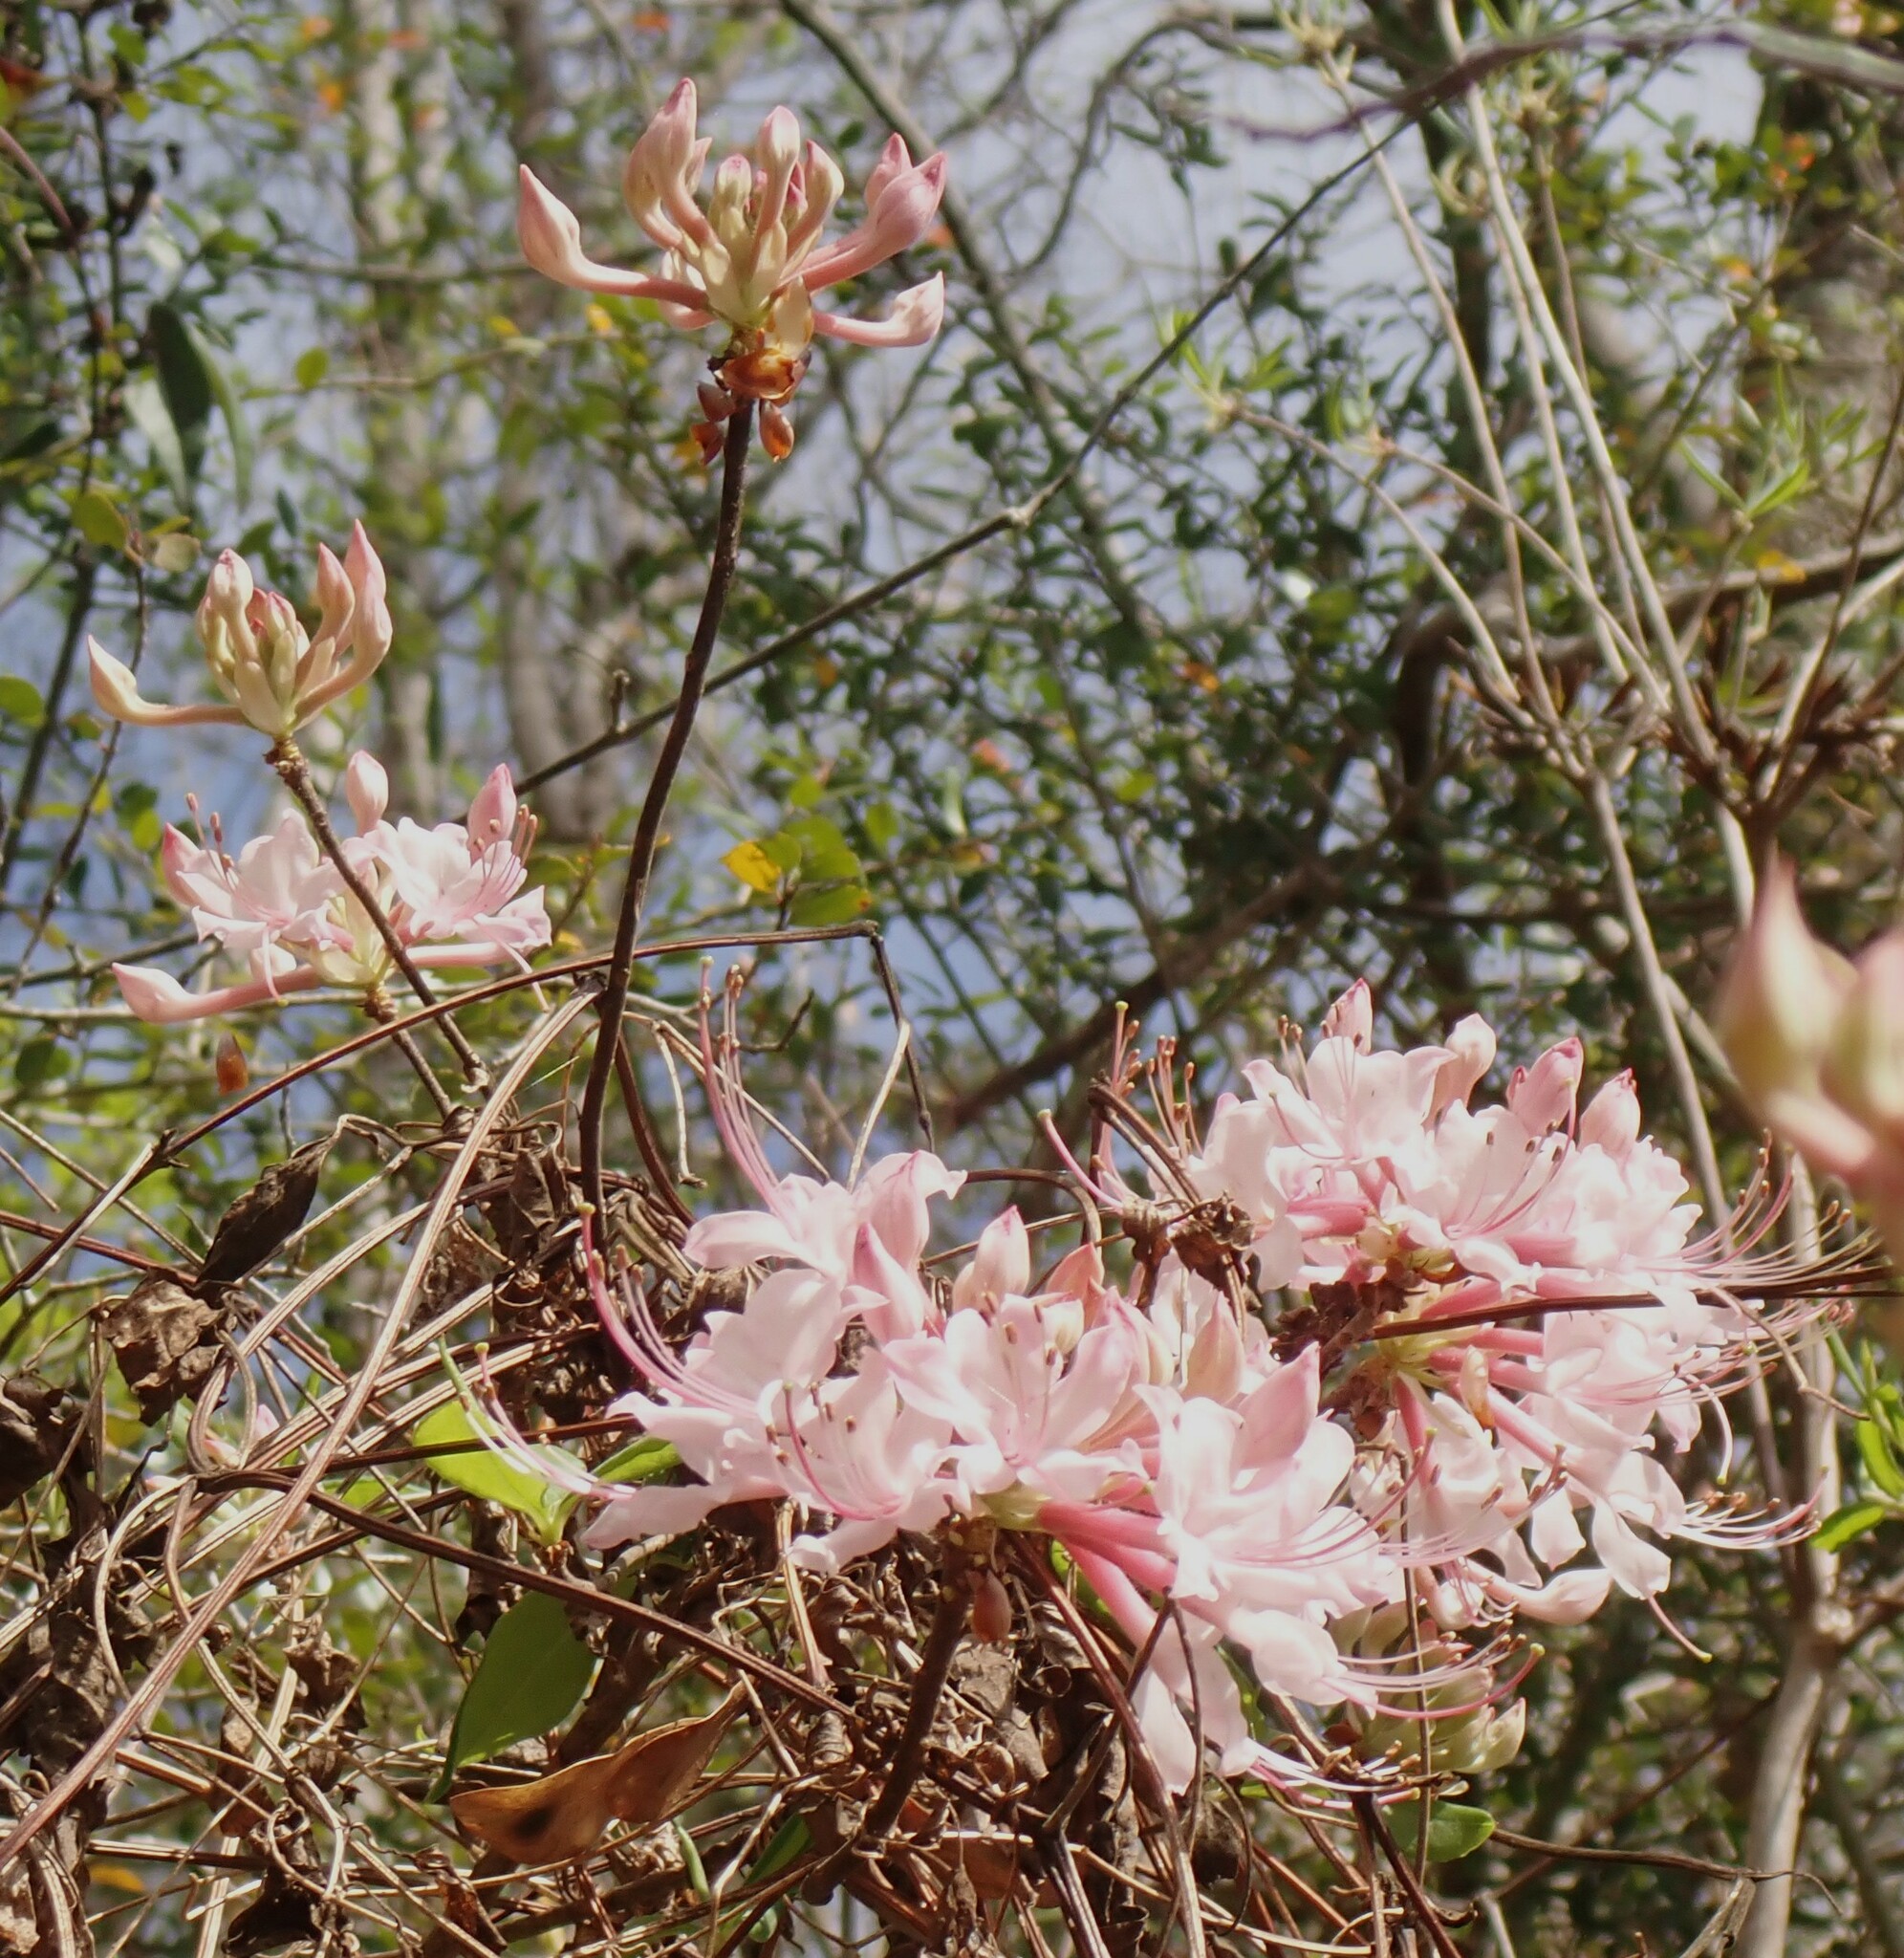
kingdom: Plantae
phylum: Tracheophyta
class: Magnoliopsida
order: Ericales
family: Ericaceae
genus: Rhododendron
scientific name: Rhododendron canescens
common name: Mountain azalea
